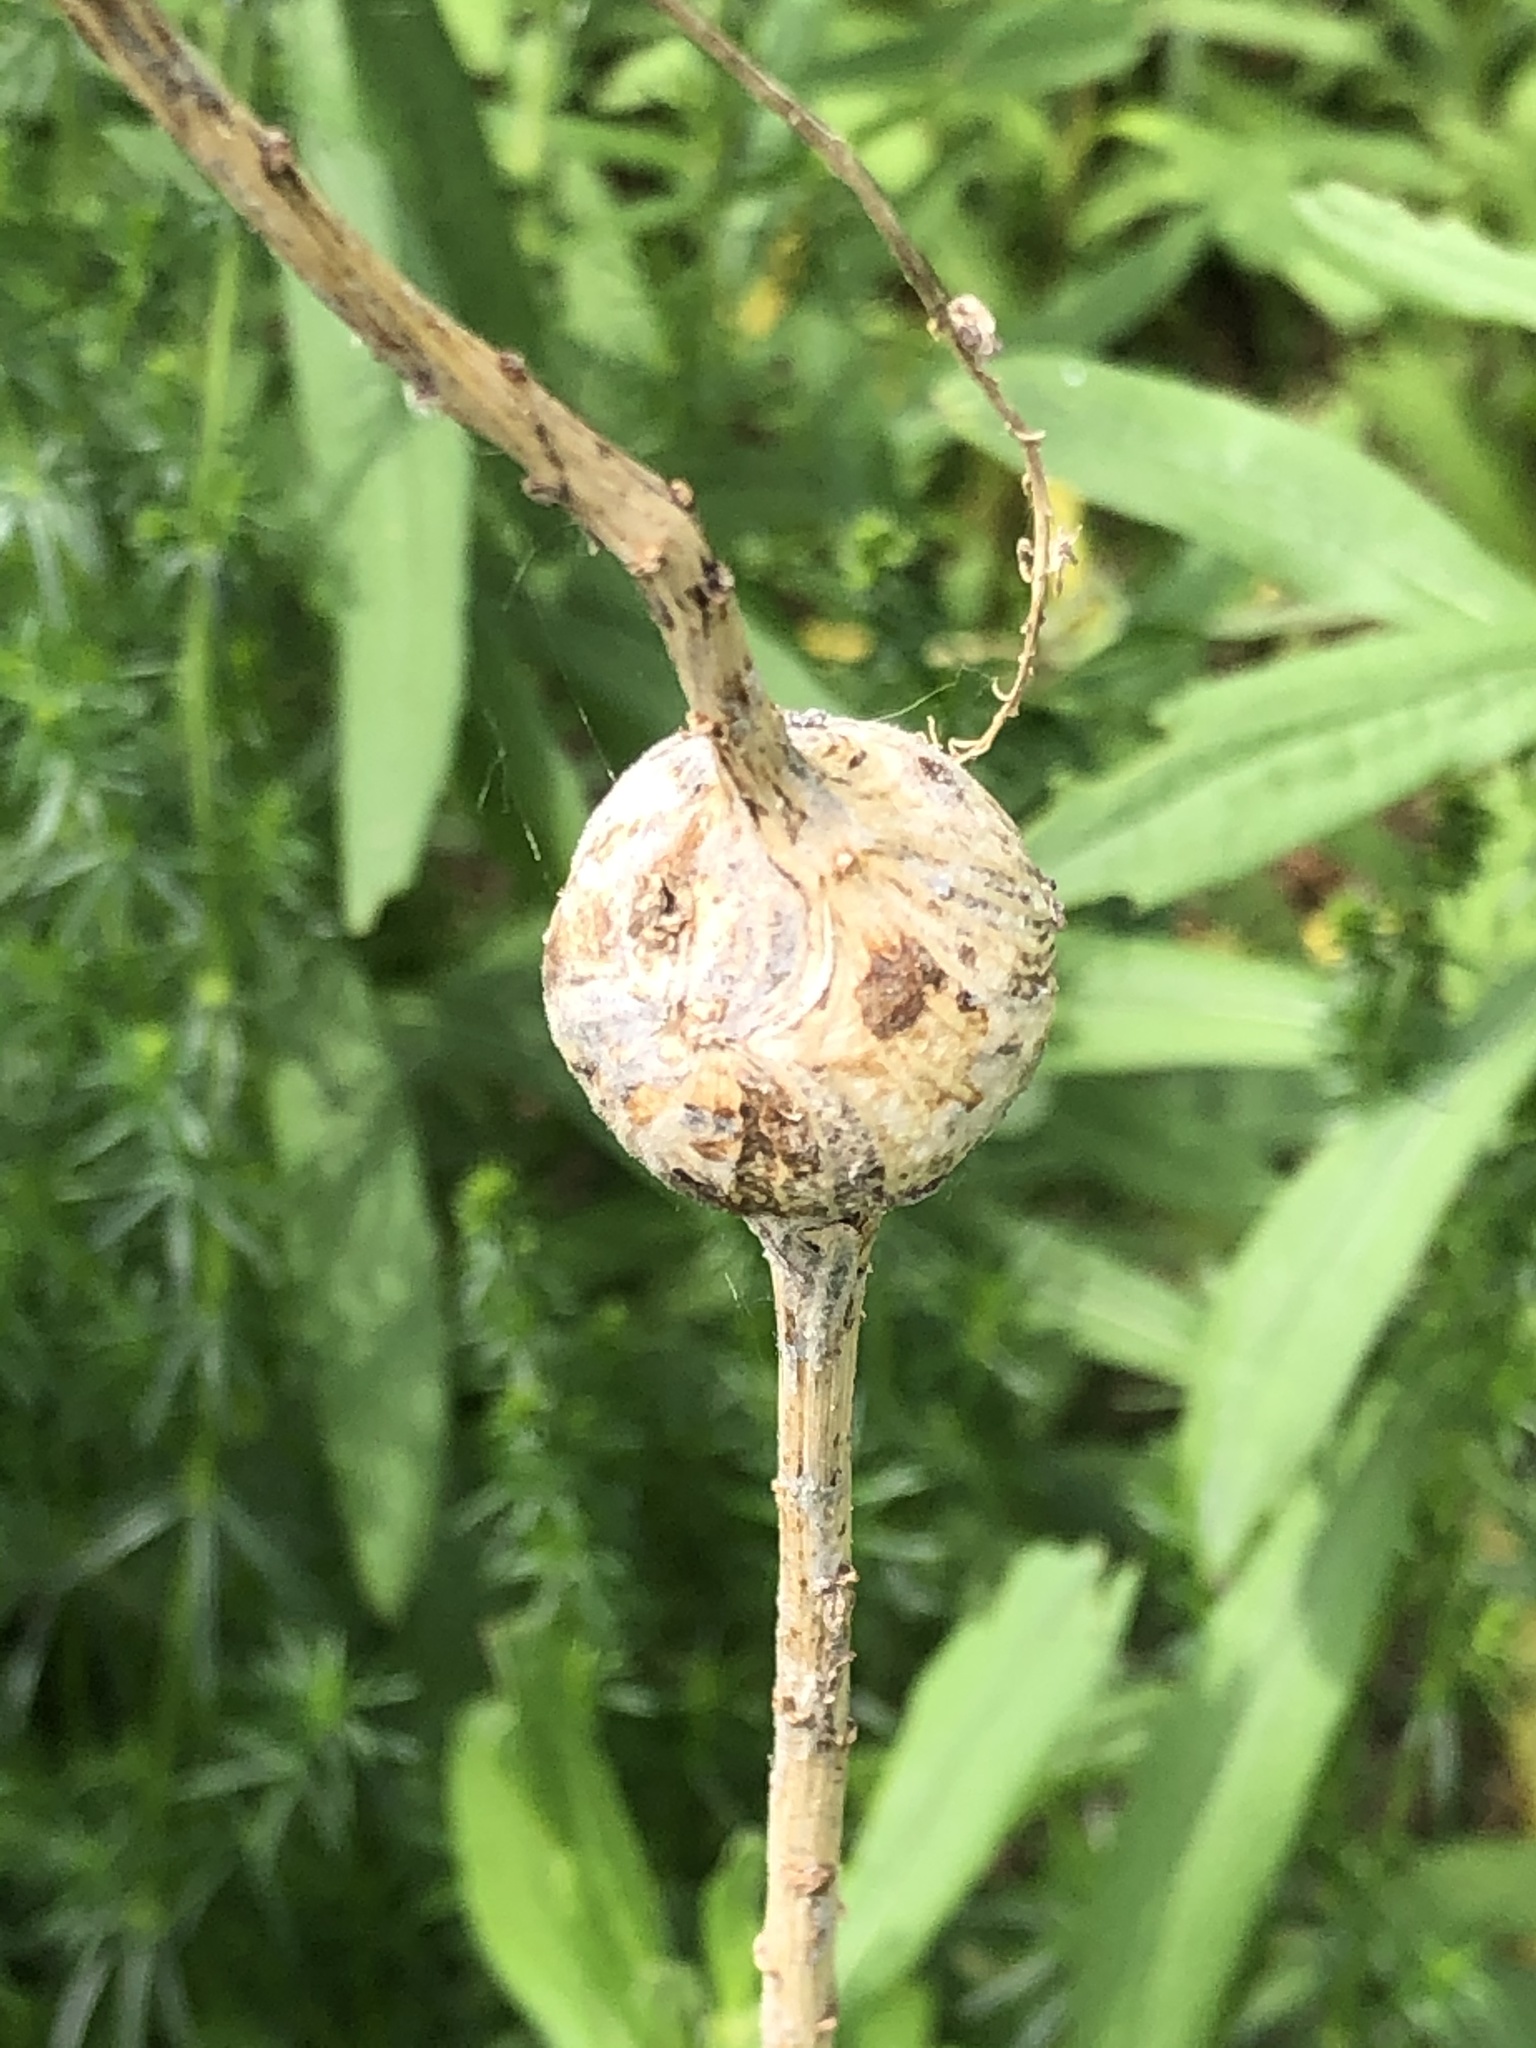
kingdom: Animalia
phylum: Arthropoda
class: Insecta
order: Diptera
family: Tephritidae
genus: Eurosta
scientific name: Eurosta solidaginis
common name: Goldenrod gall fly
